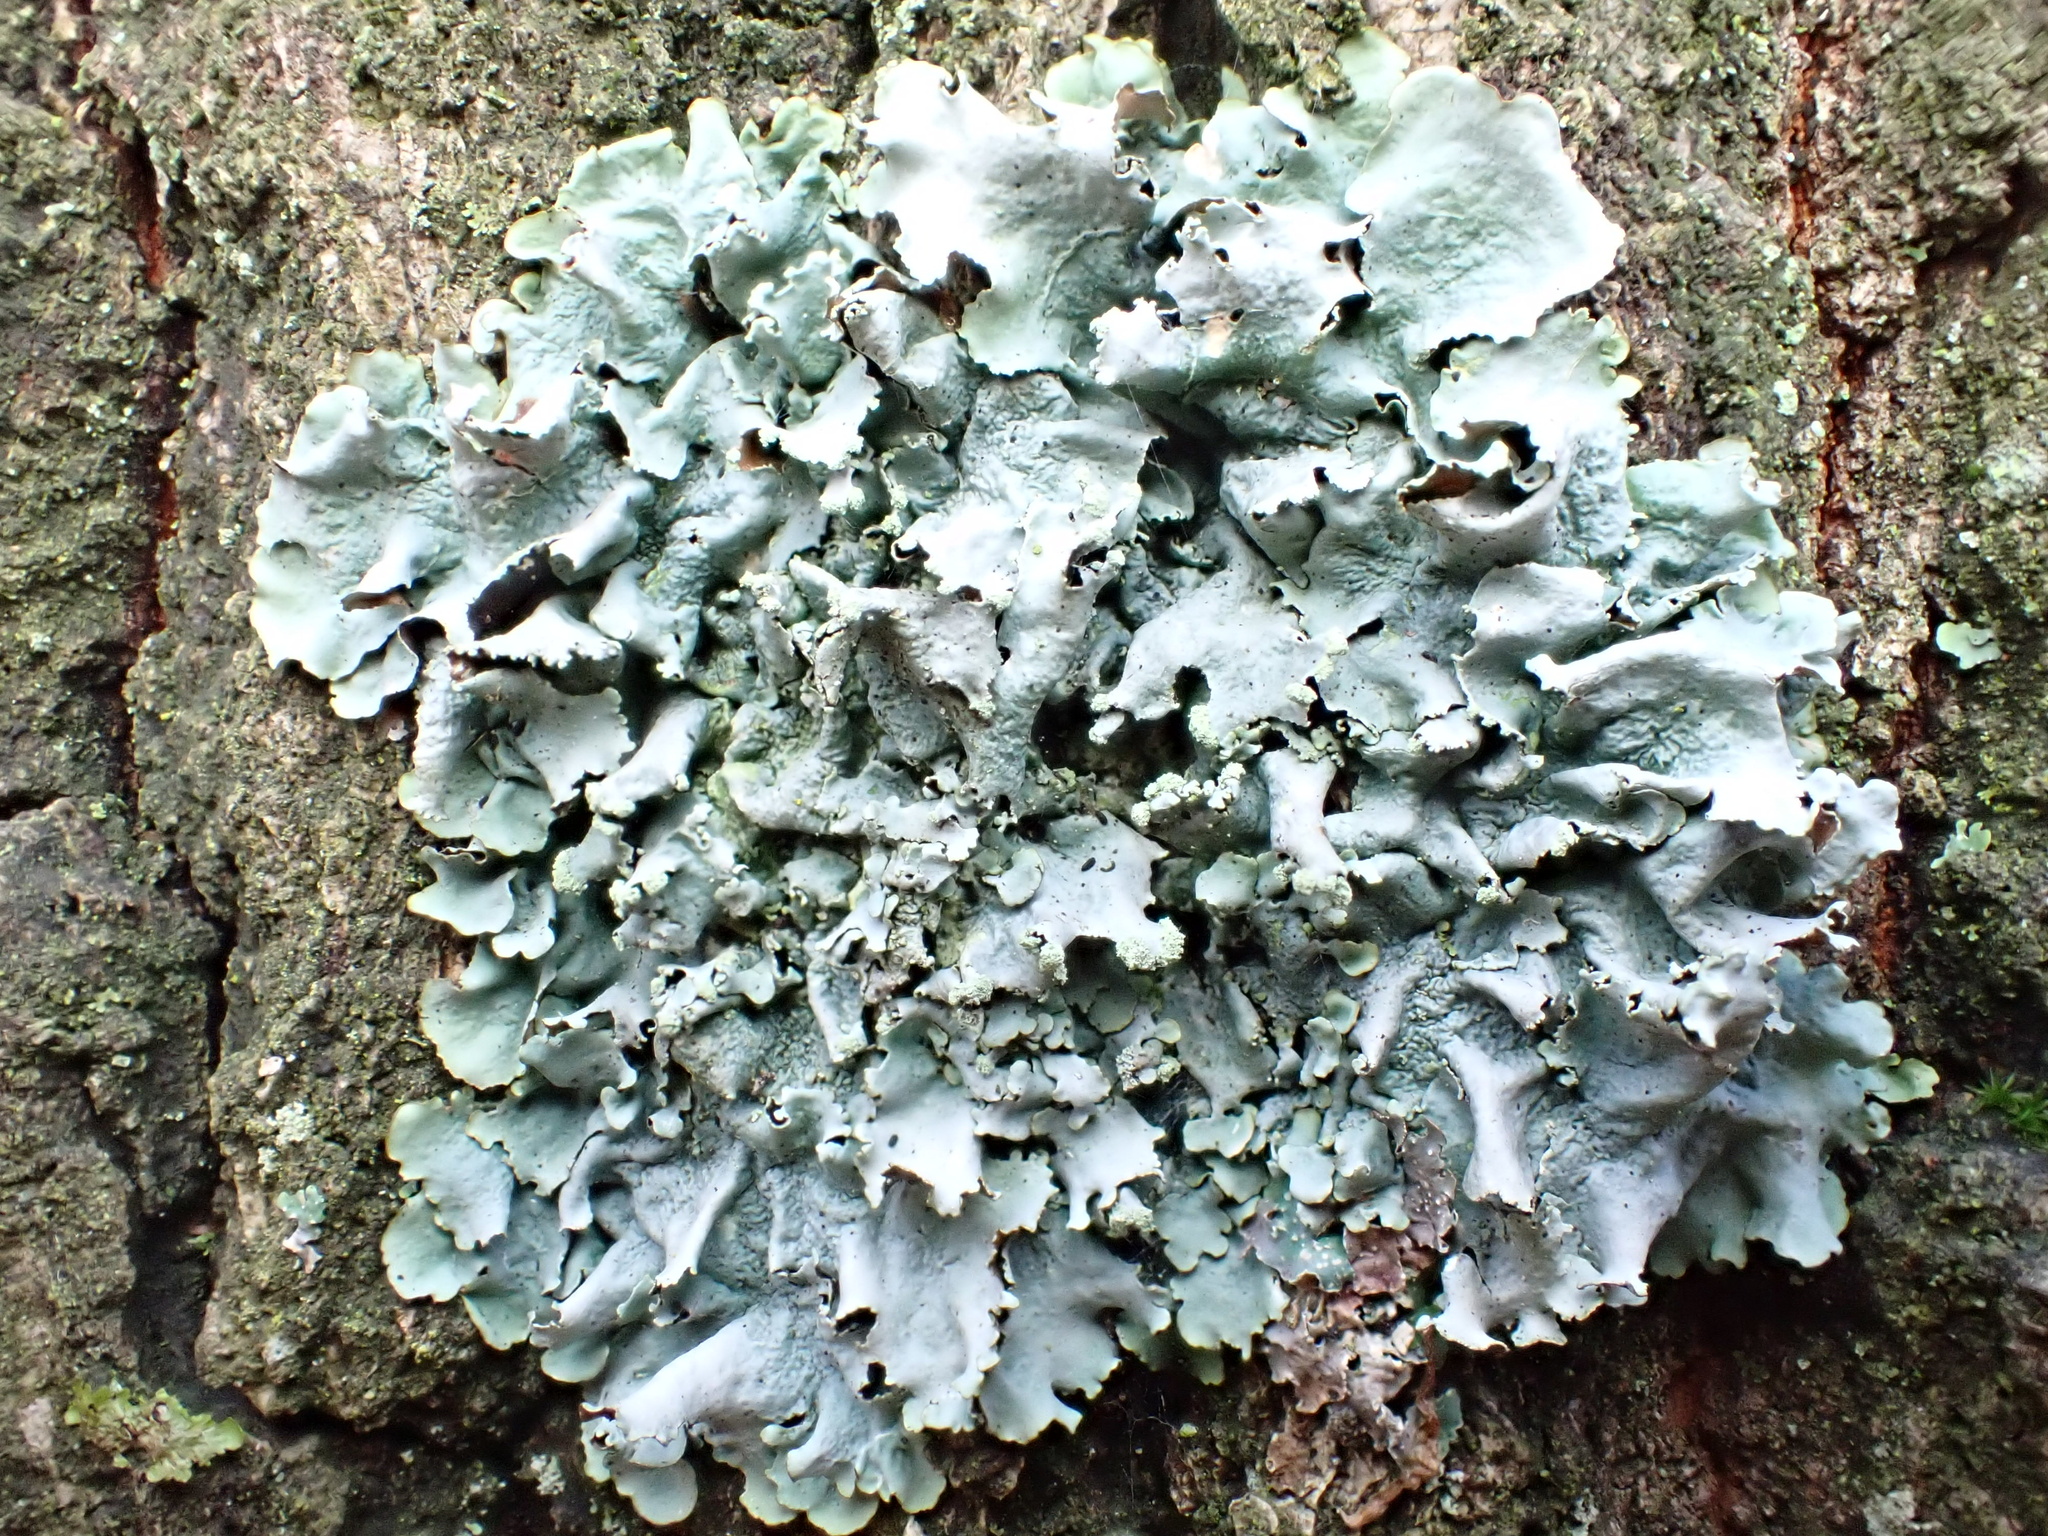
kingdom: Fungi
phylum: Ascomycota
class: Lecanoromycetes
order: Lecanorales
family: Parmeliaceae
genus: Parmotrema
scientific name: Parmotrema perlatum
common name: Black stone flower
